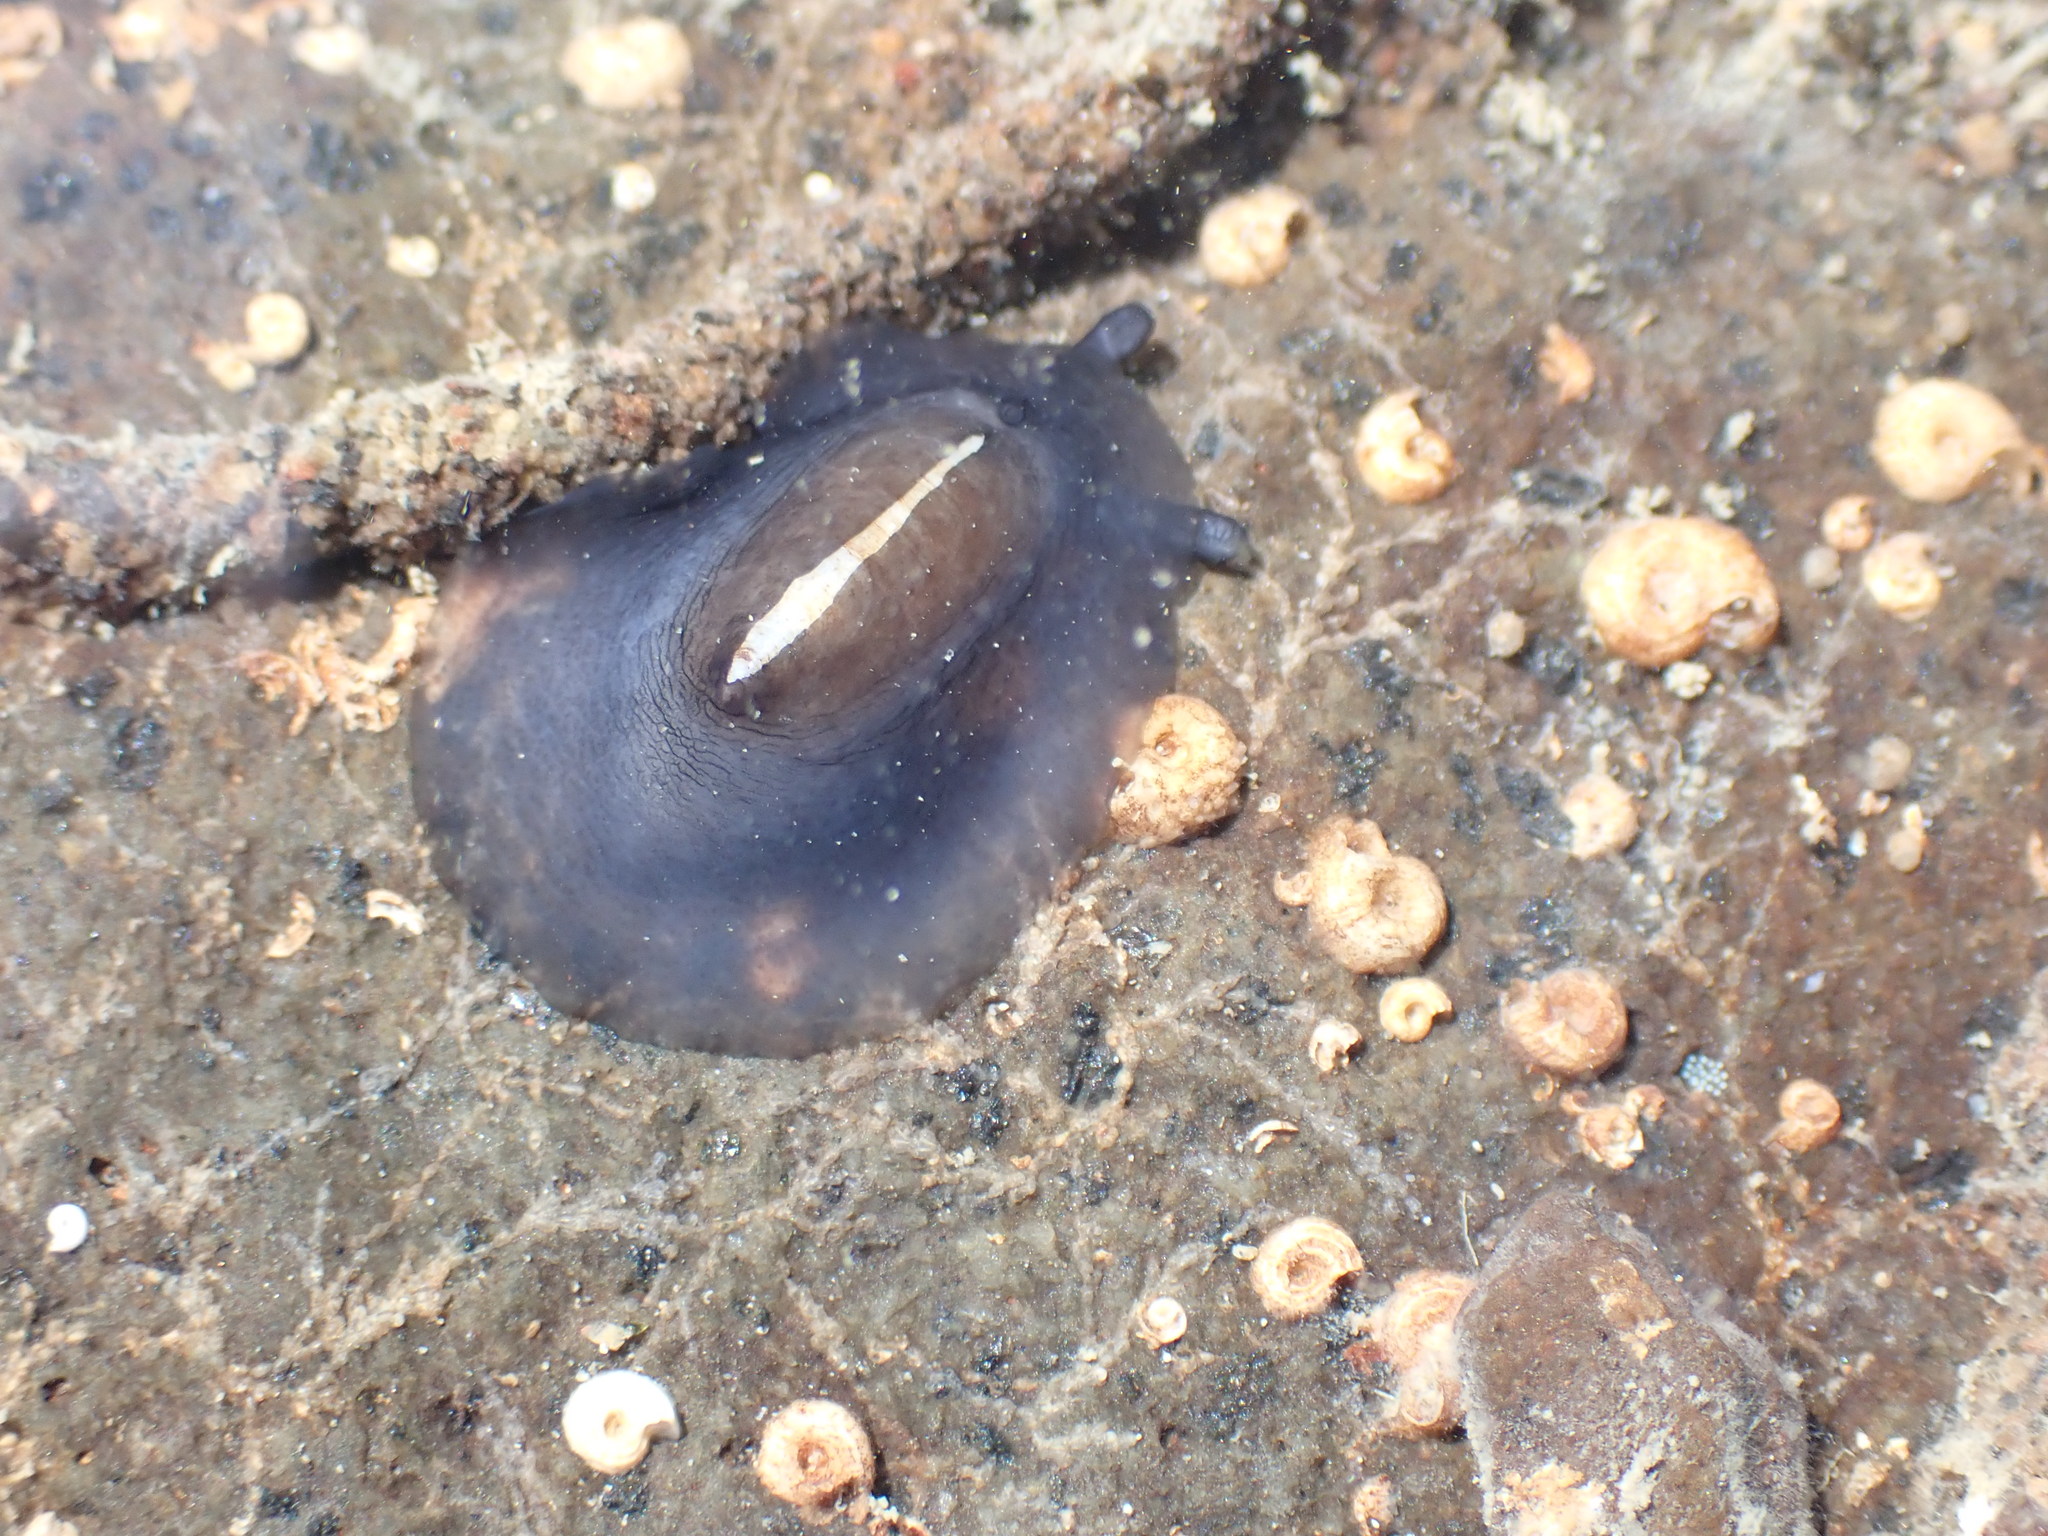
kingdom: Animalia
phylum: Mollusca
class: Gastropoda
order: Lepetellida
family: Fissurellidae
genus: Scutus
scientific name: Scutus breviculus
